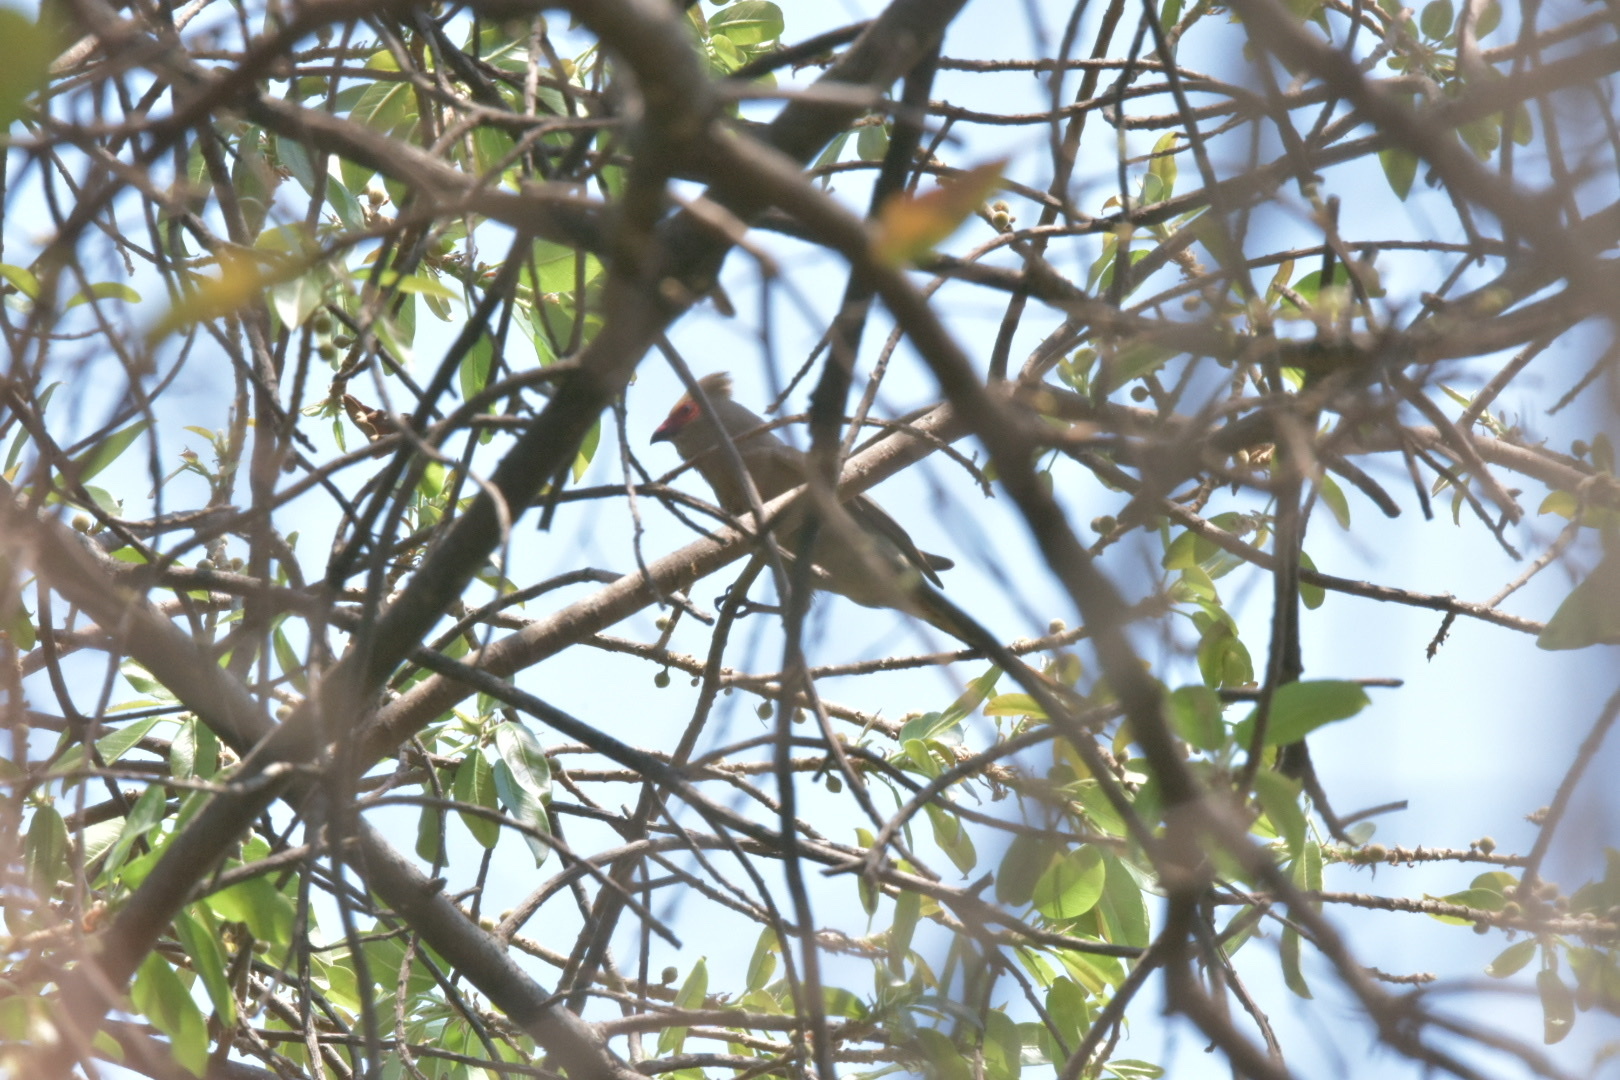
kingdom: Animalia
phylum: Chordata
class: Aves
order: Coliiformes
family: Coliidae
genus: Urocolius
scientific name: Urocolius indicus
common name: Red-faced mousebird
